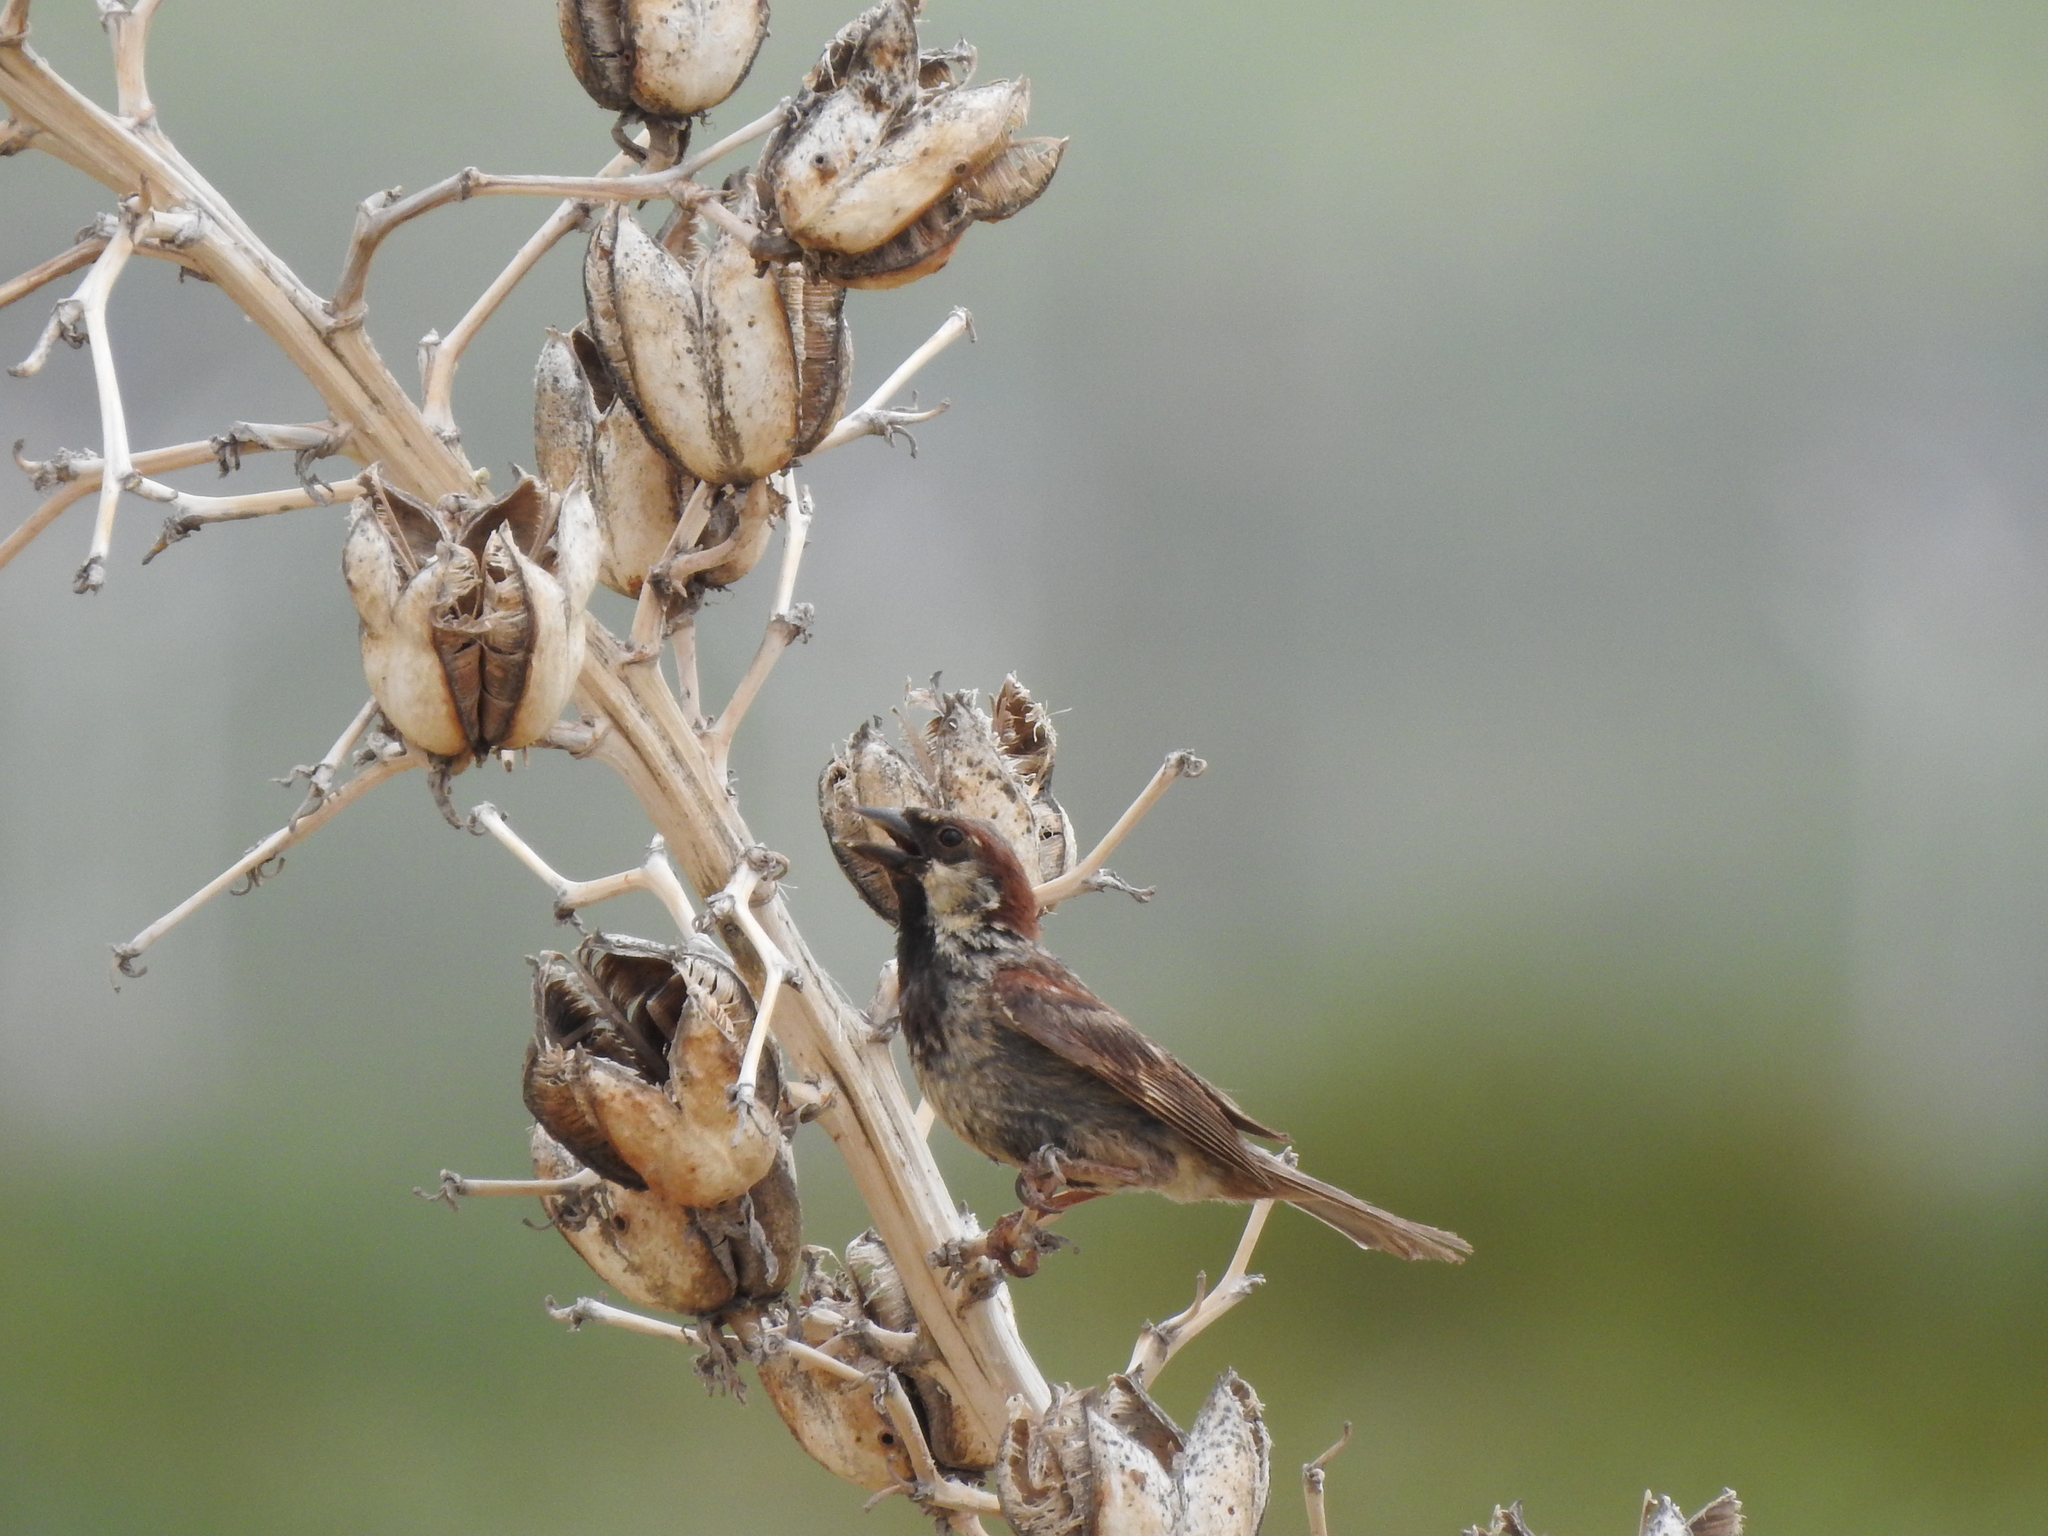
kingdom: Animalia
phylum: Chordata
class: Aves
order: Passeriformes
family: Passeridae
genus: Passer
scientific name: Passer domesticus
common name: House sparrow
